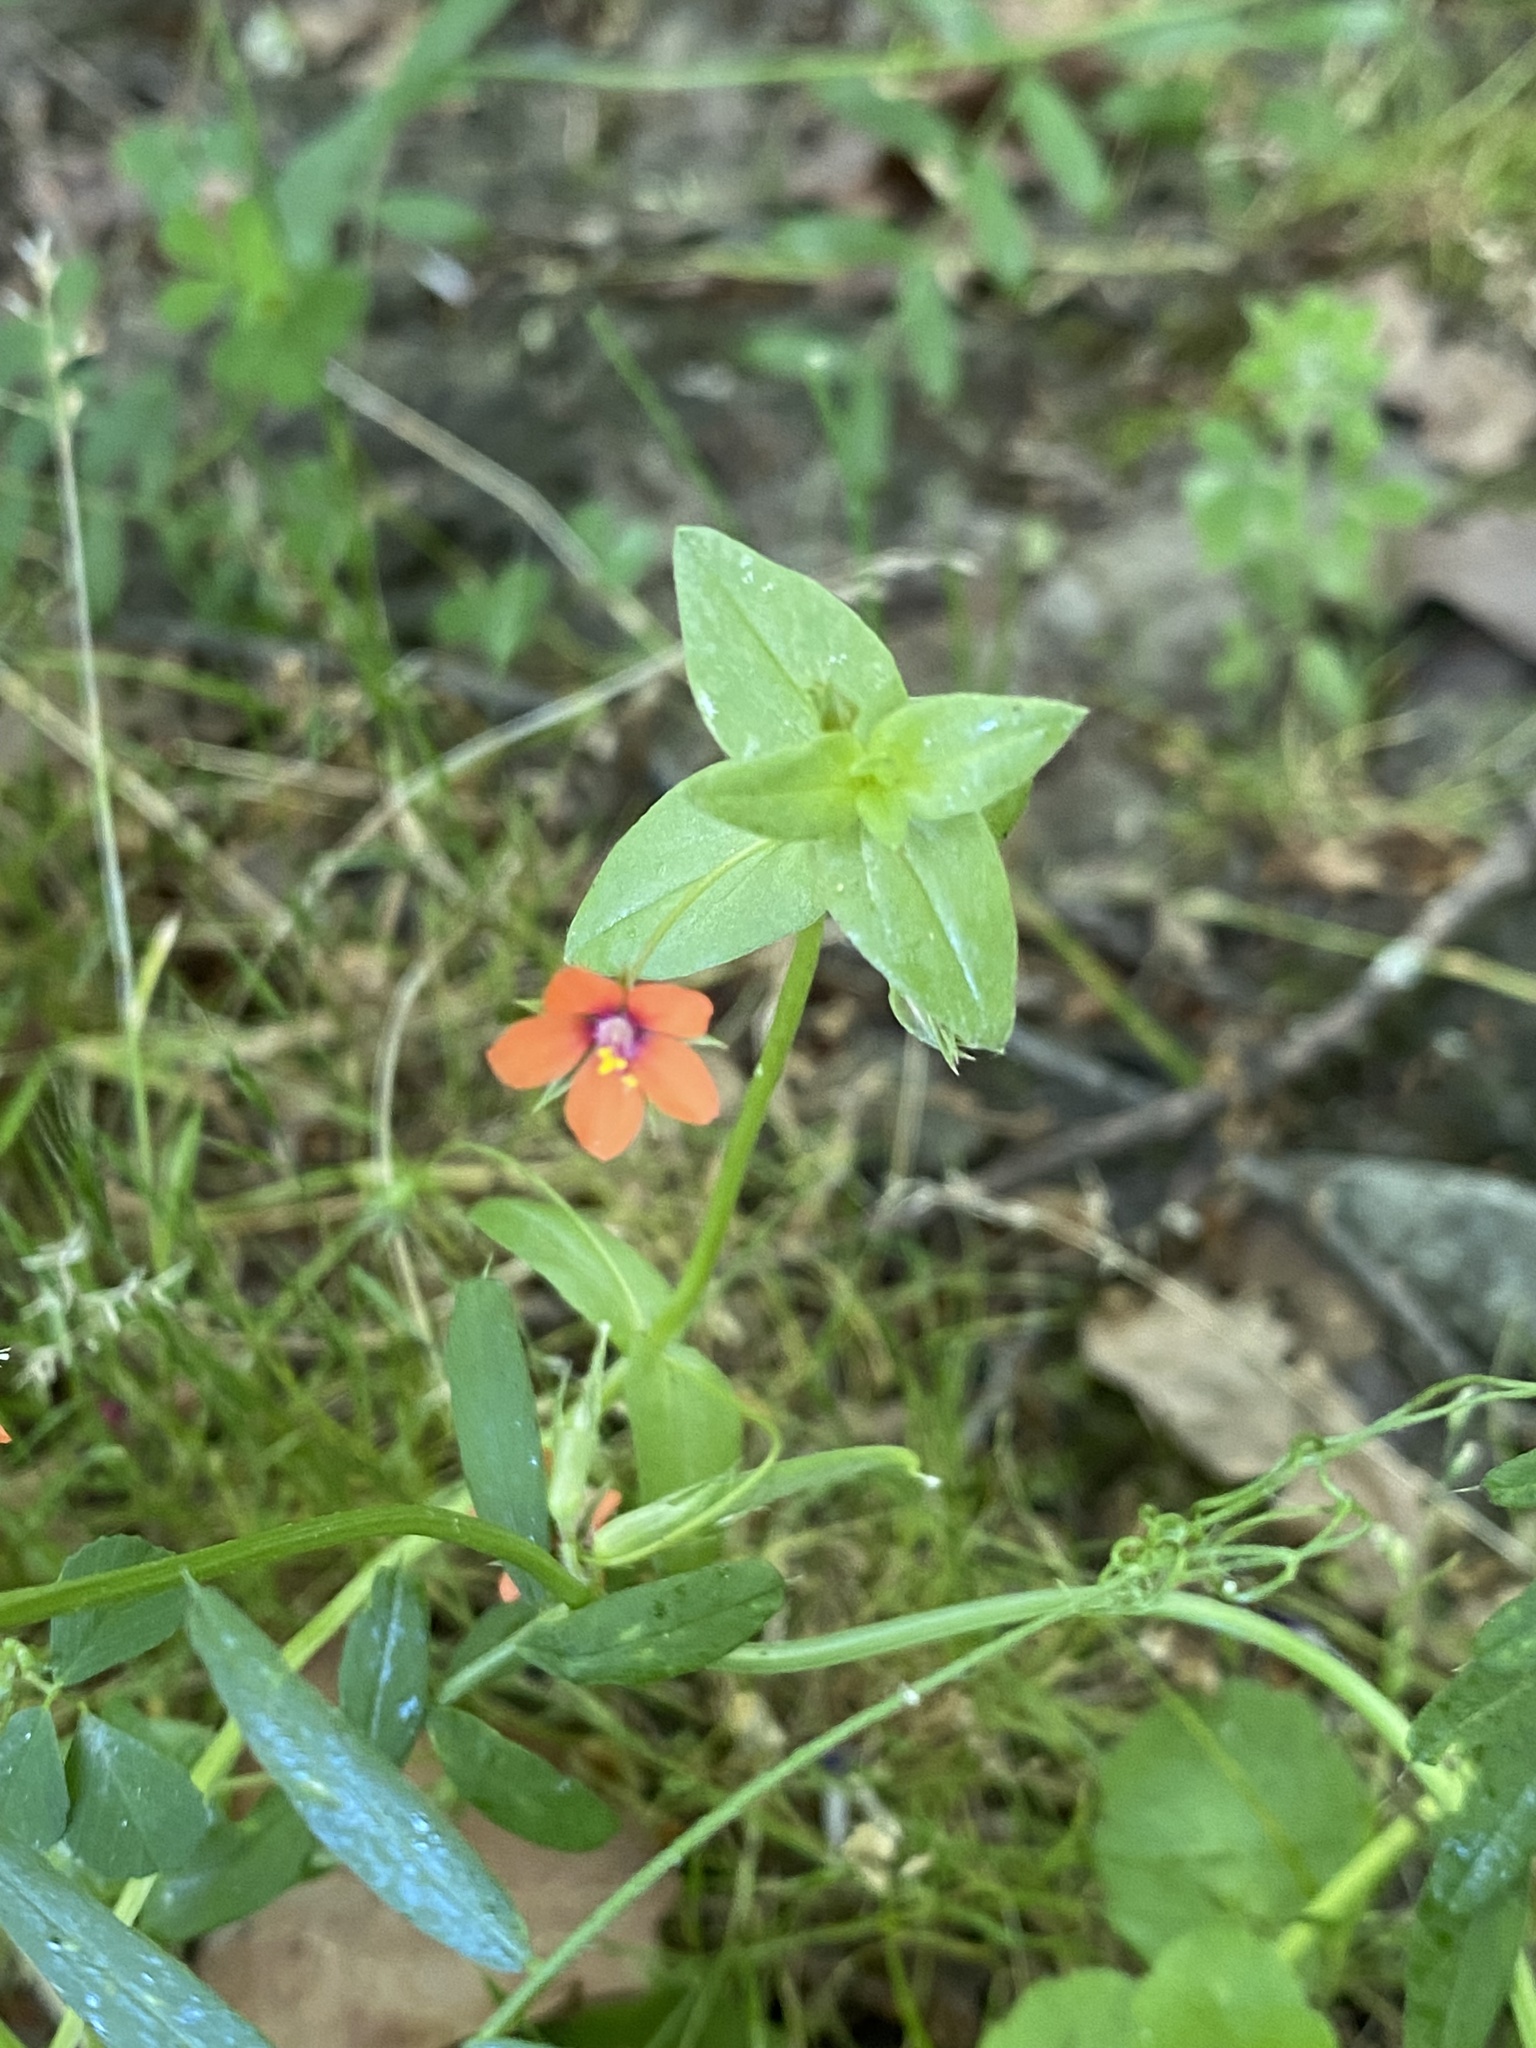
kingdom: Plantae
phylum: Tracheophyta
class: Magnoliopsida
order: Ericales
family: Primulaceae
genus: Lysimachia
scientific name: Lysimachia arvensis
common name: Scarlet pimpernel
